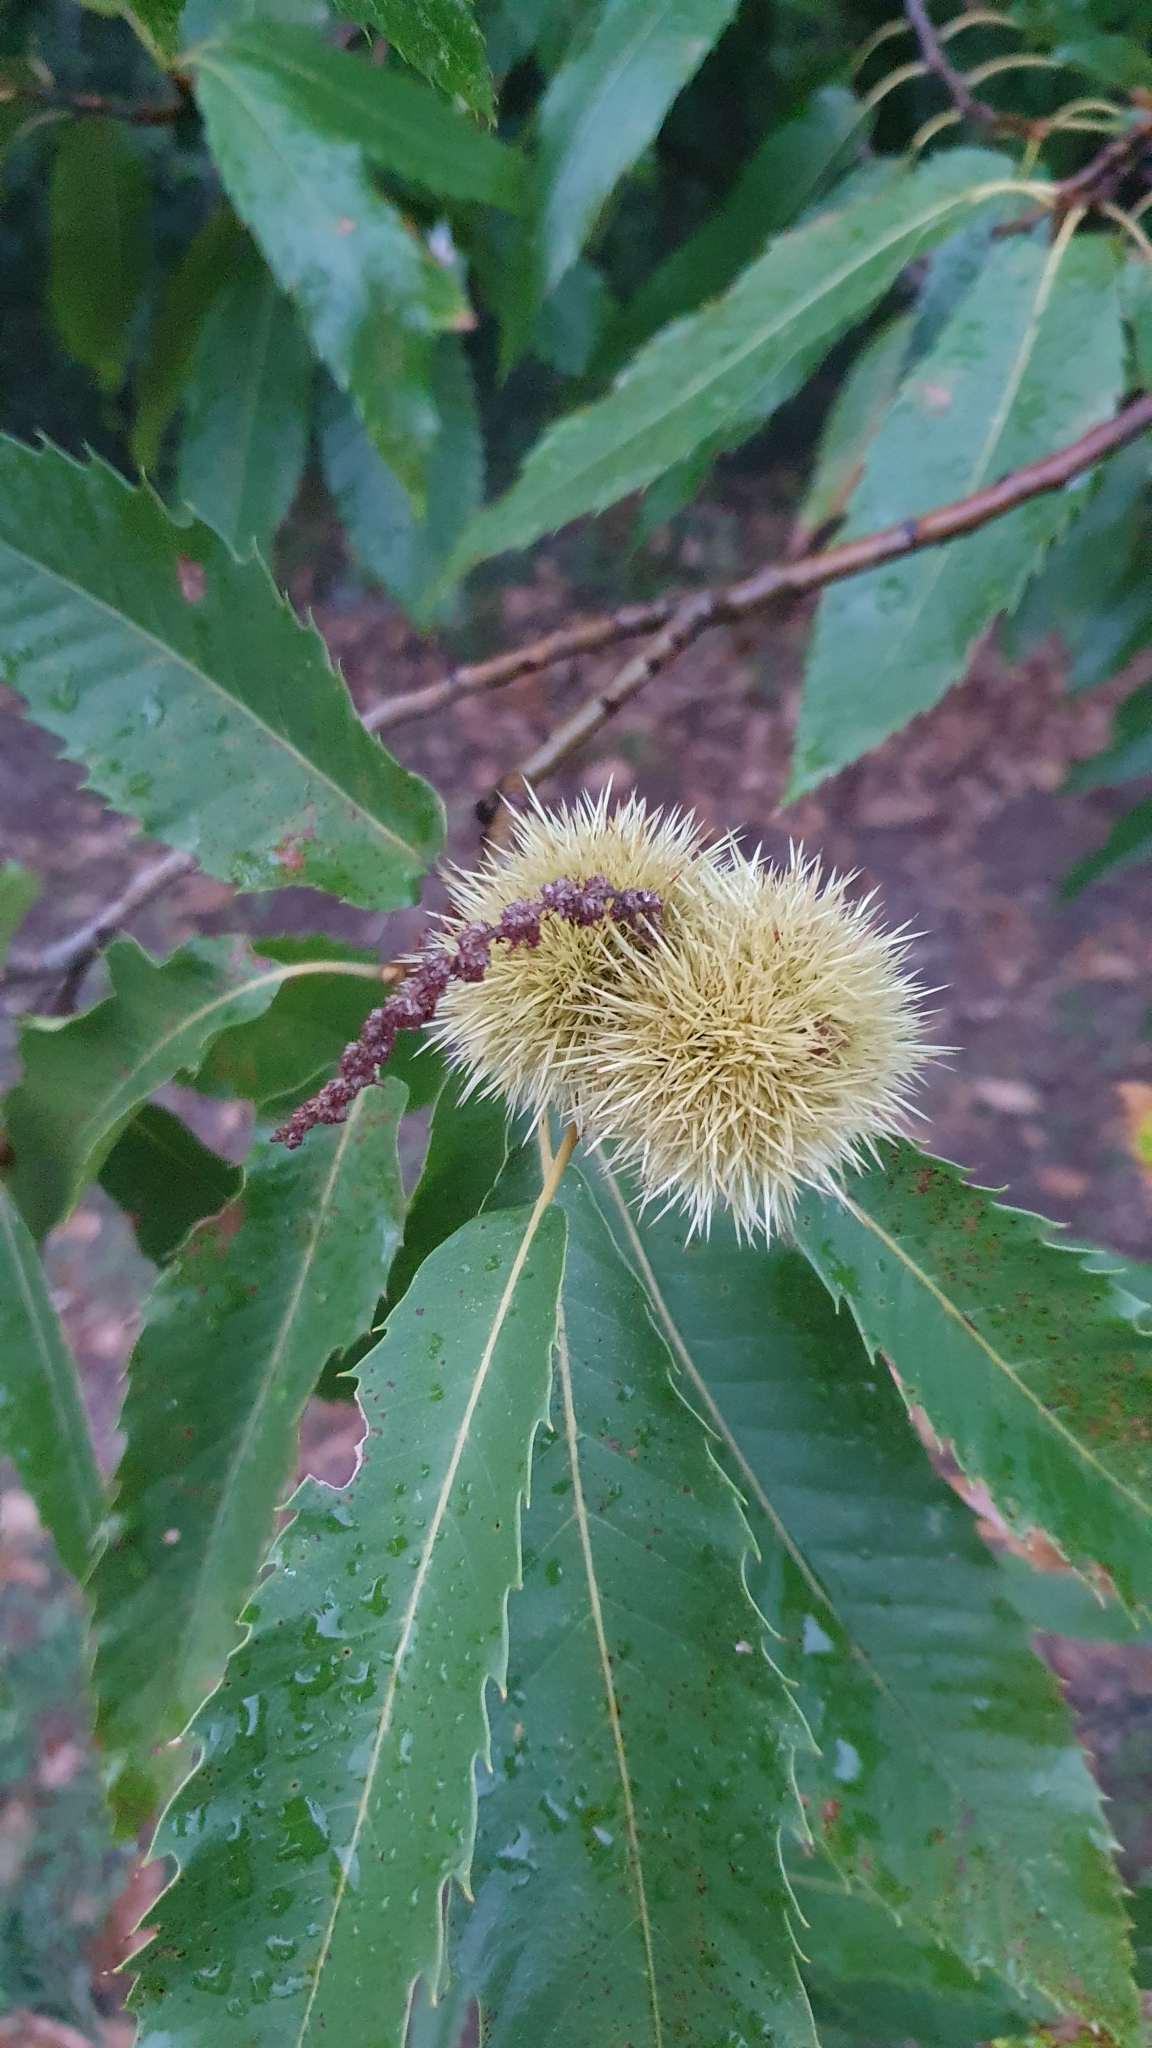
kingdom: Plantae
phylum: Tracheophyta
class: Magnoliopsida
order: Fagales
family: Fagaceae
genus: Castanea
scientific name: Castanea sativa
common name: Sweet chestnut
